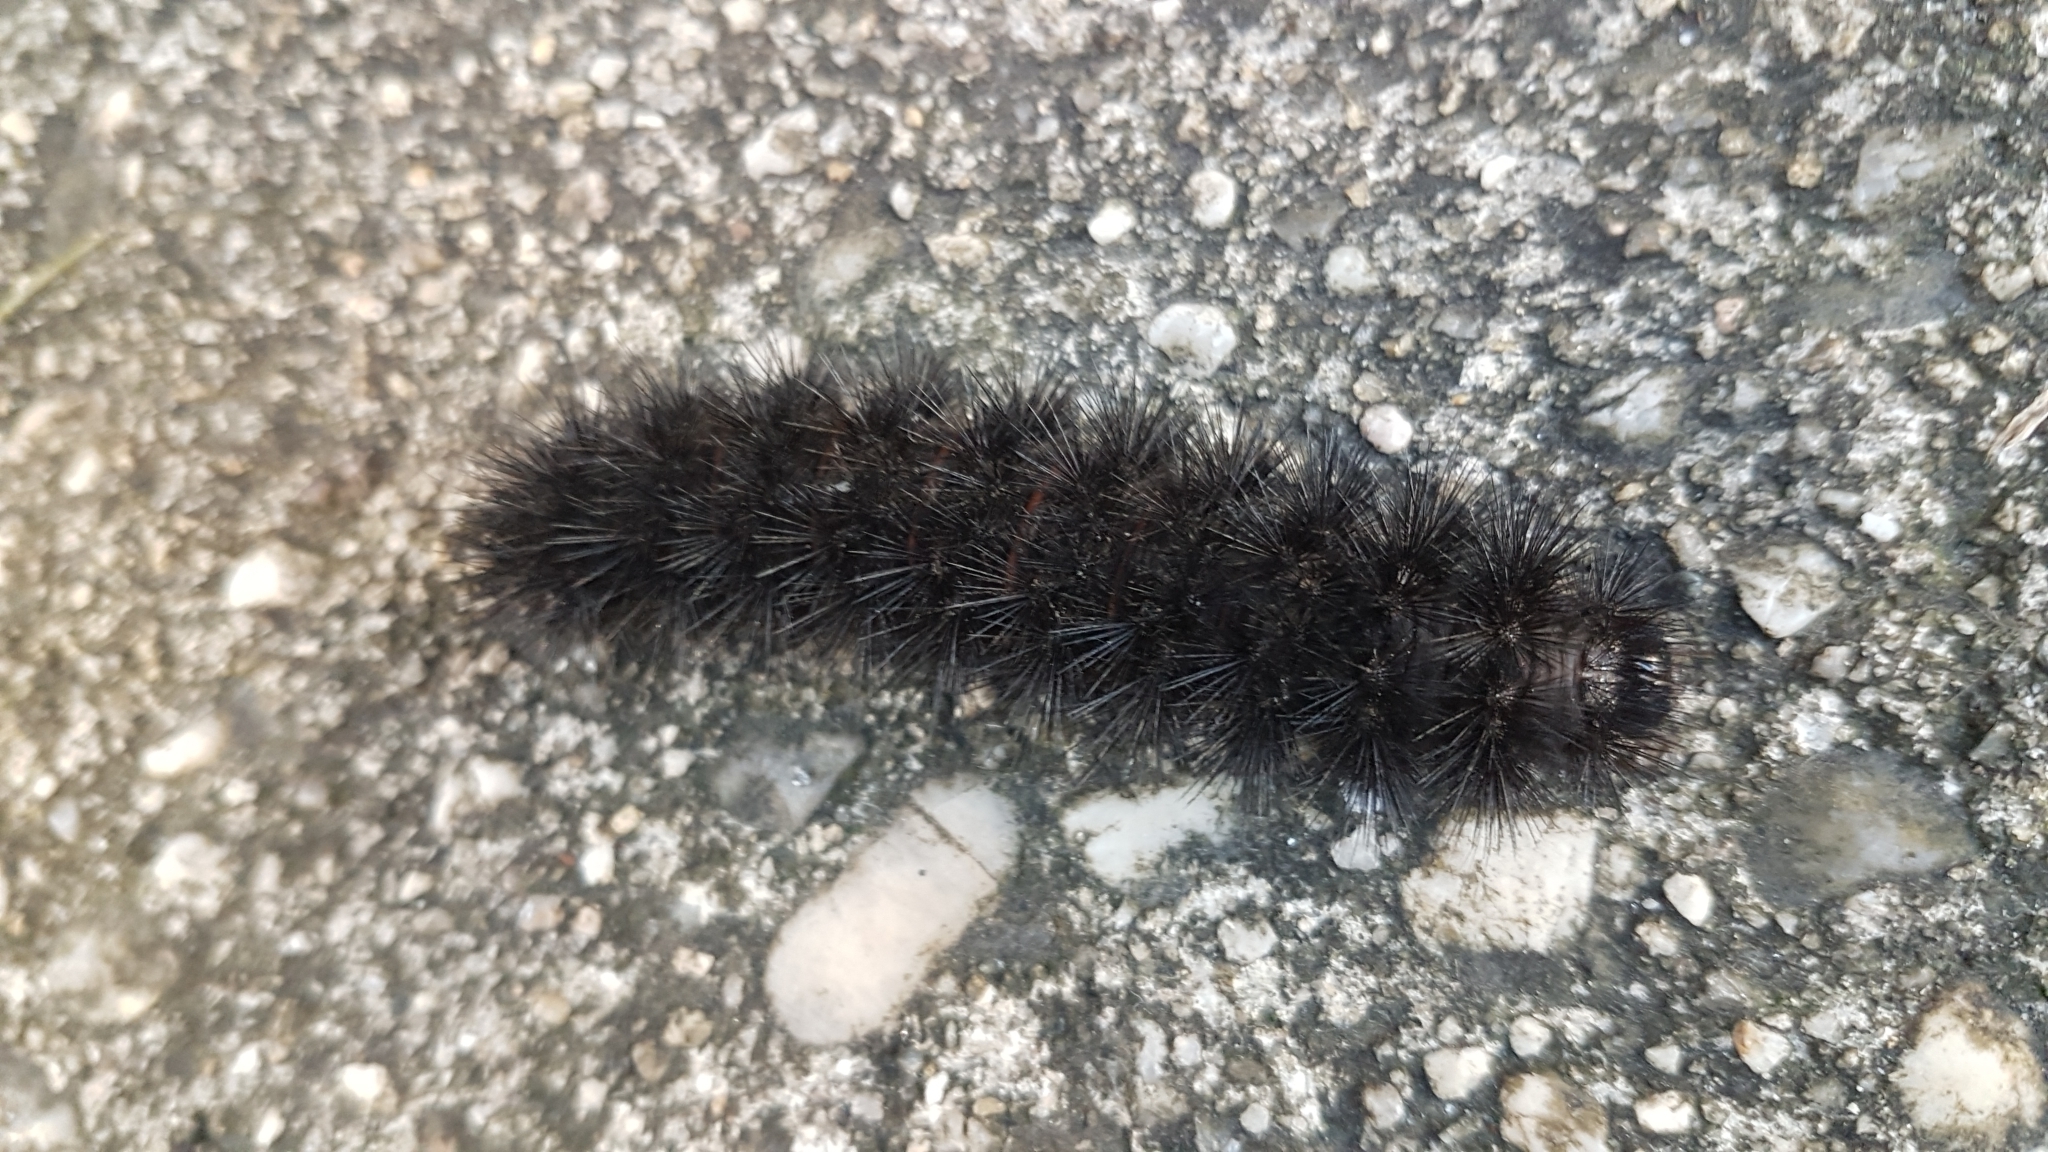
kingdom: Animalia
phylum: Arthropoda
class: Insecta
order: Lepidoptera
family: Erebidae
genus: Hypercompe
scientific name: Hypercompe scribonia
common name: Giant leopard moth
